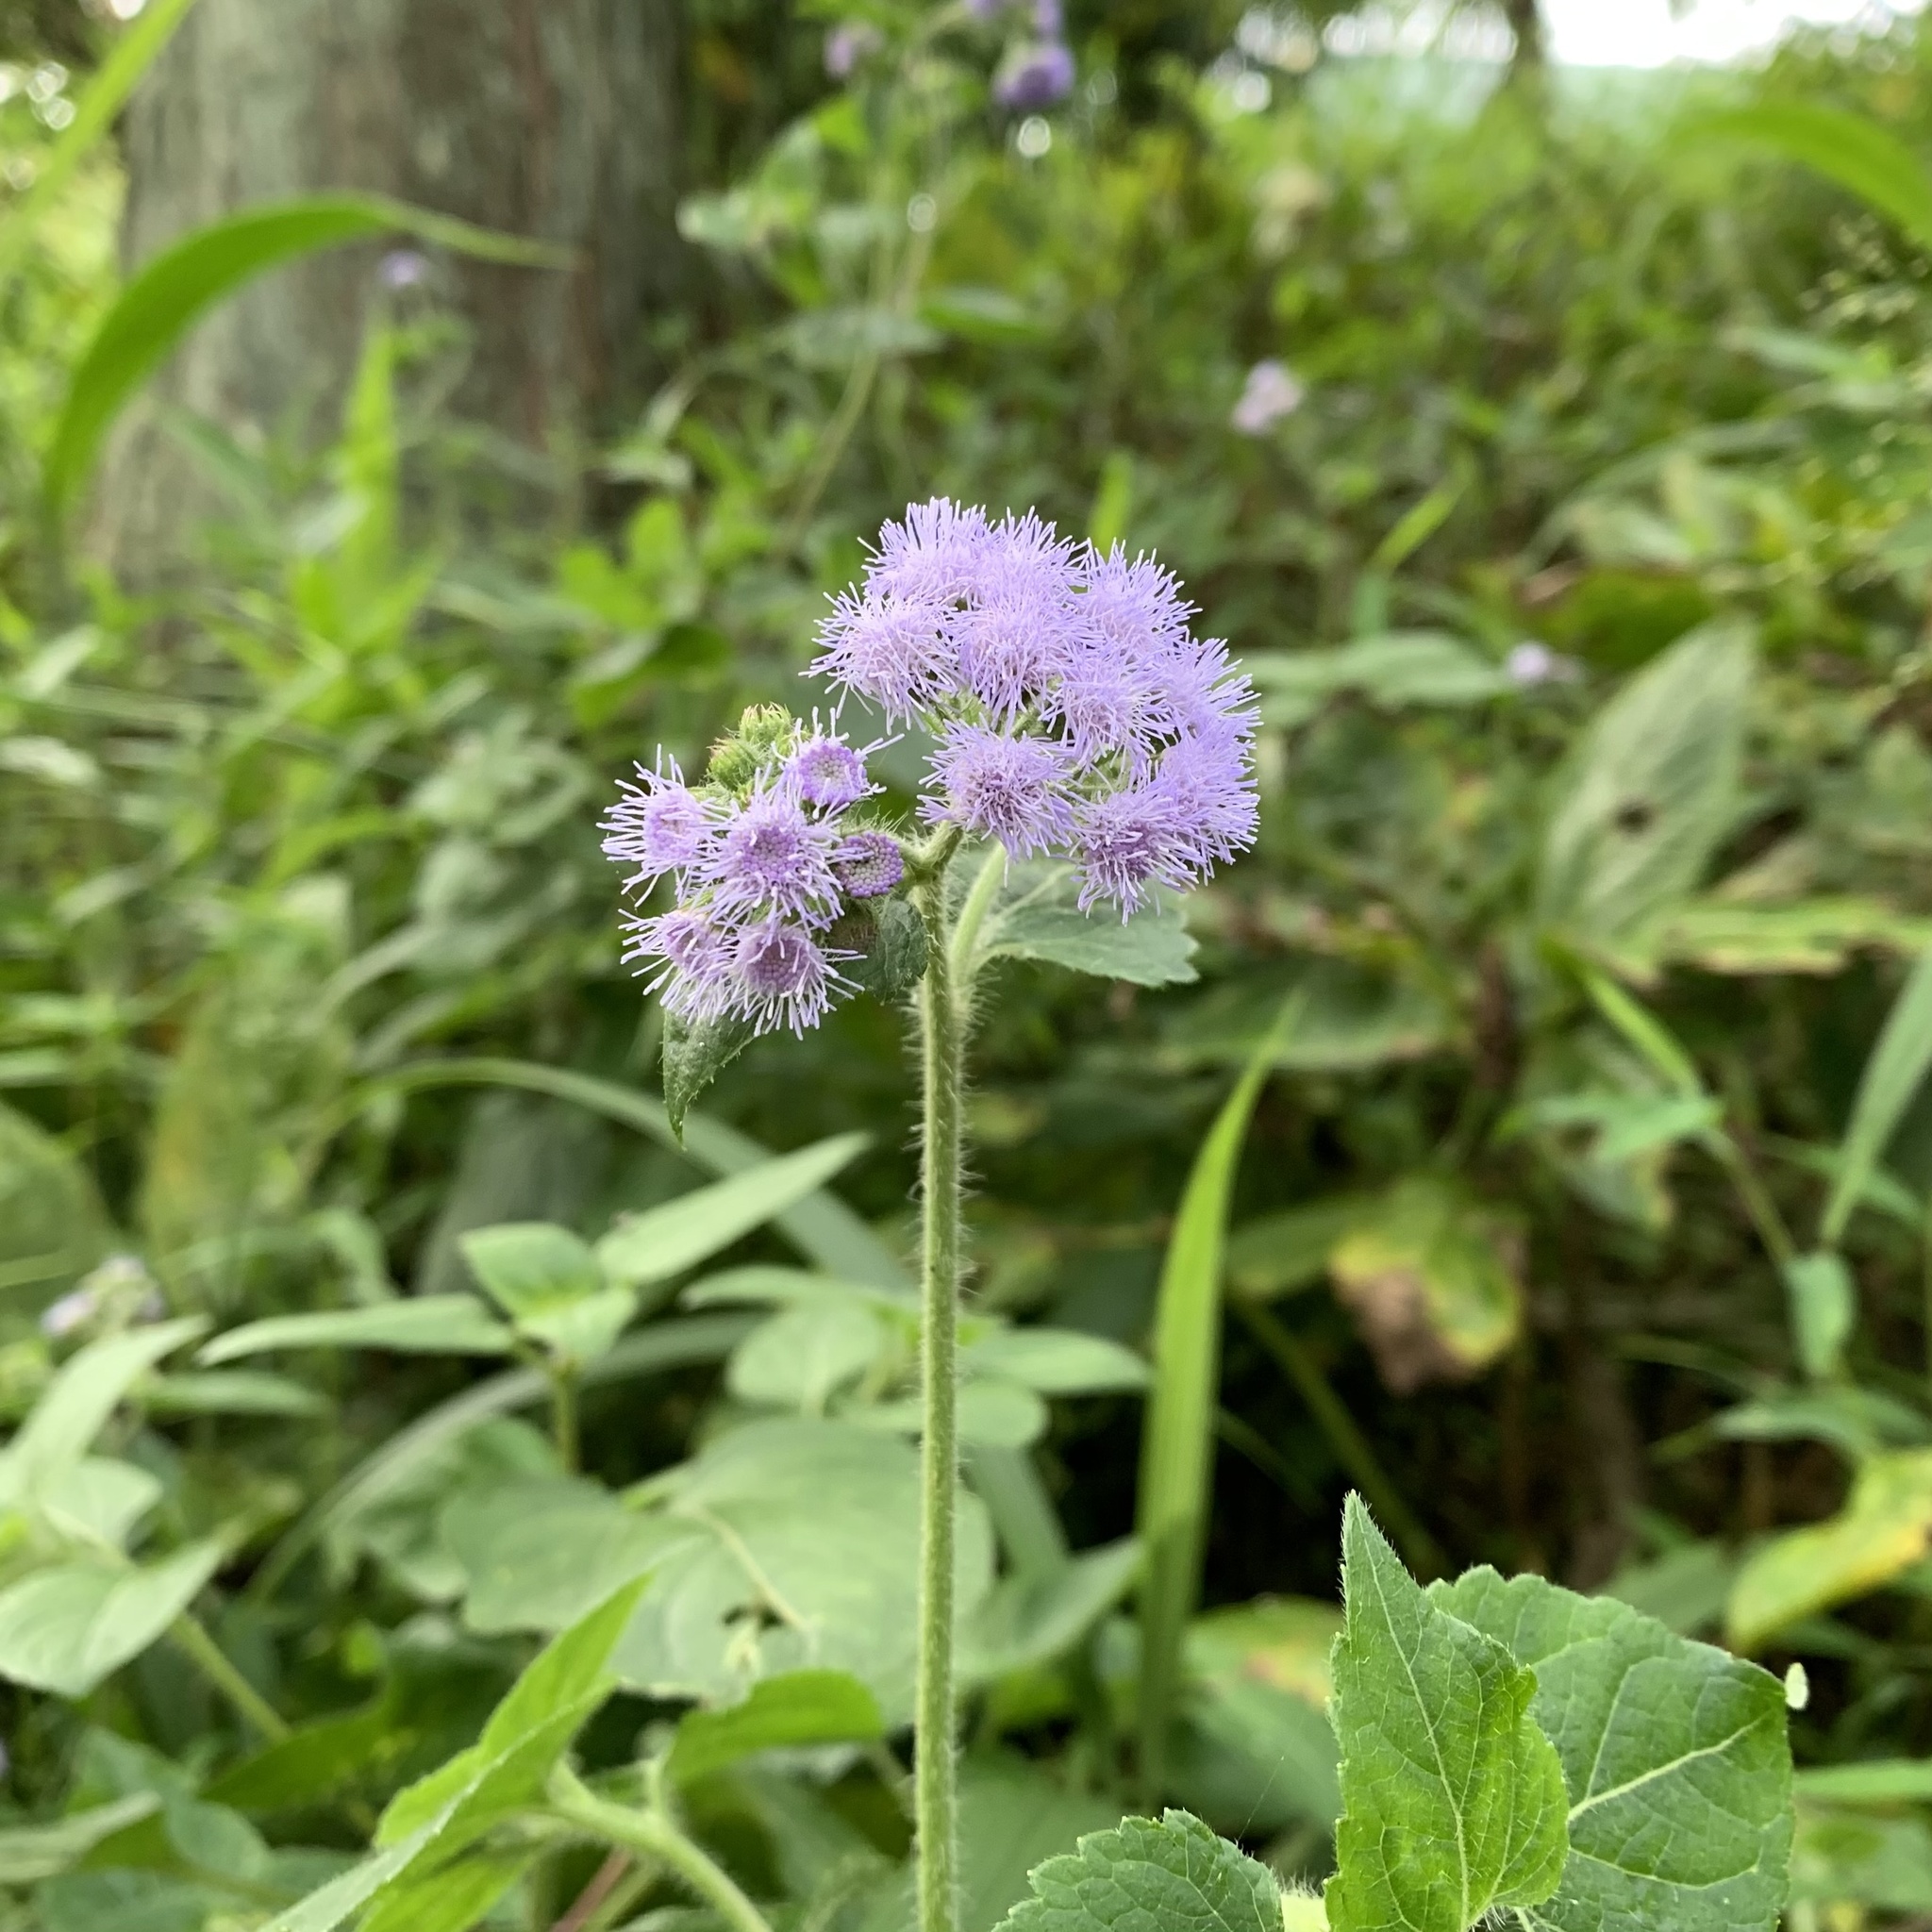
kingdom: Plantae
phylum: Tracheophyta
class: Magnoliopsida
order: Asterales
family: Asteraceae
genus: Ageratum
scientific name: Ageratum houstonianum
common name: Bluemink
